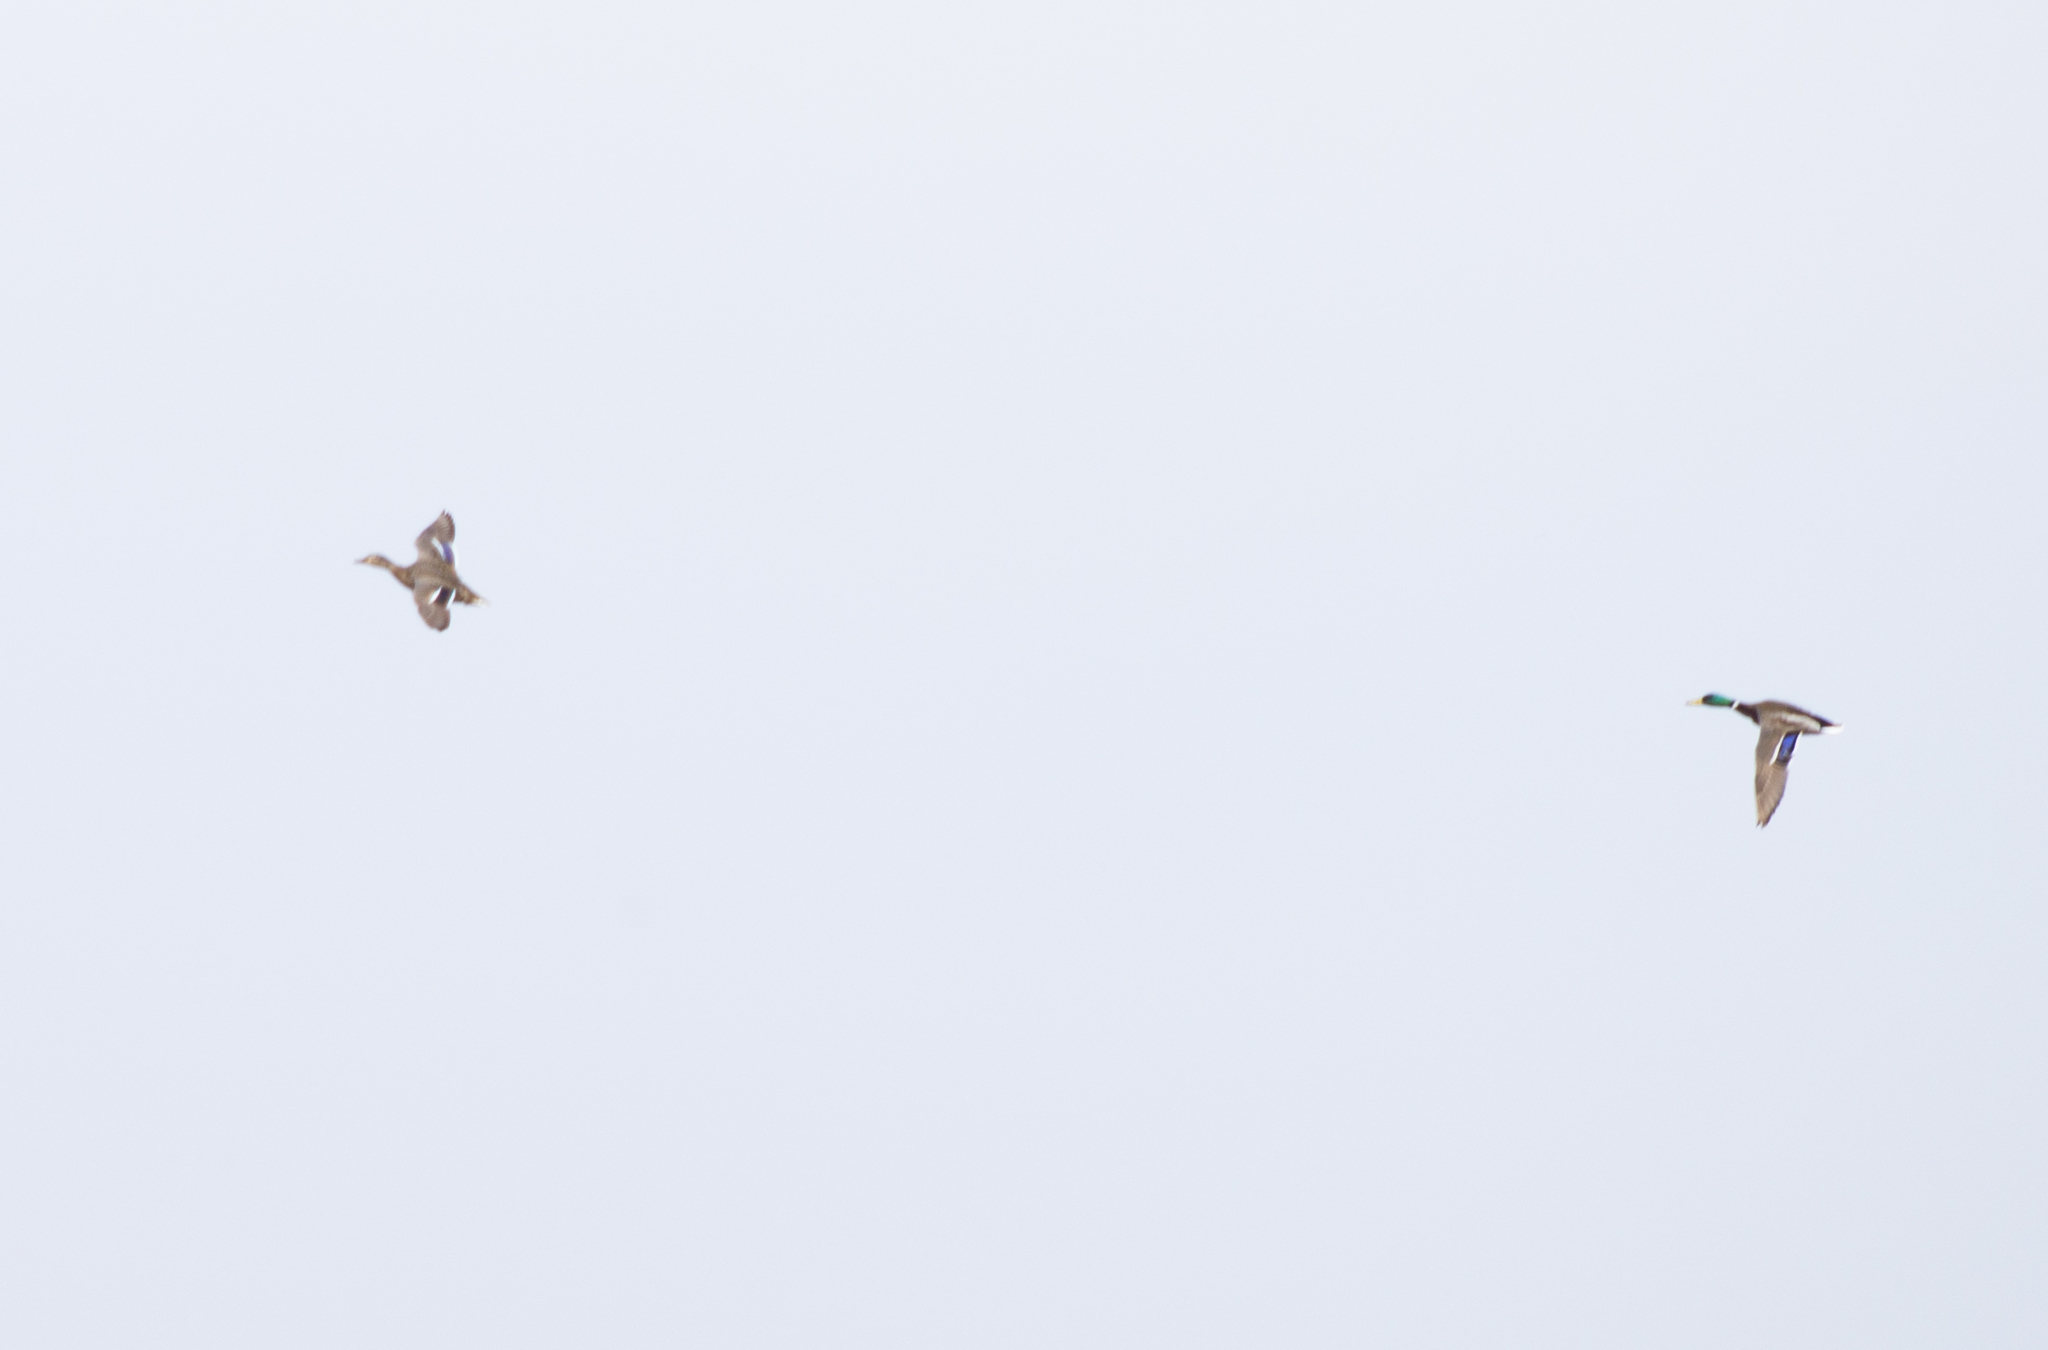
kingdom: Animalia
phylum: Chordata
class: Aves
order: Anseriformes
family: Anatidae
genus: Anas
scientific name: Anas platyrhynchos
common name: Mallard
